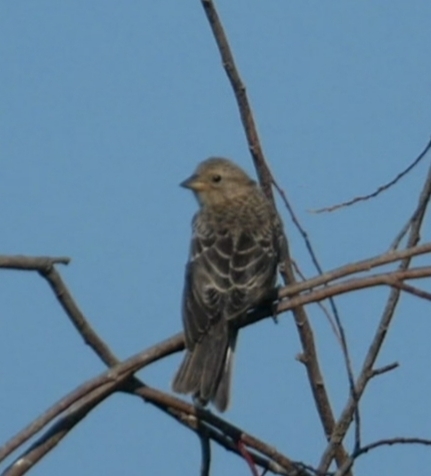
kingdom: Animalia
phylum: Chordata
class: Aves
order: Passeriformes
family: Icteridae
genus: Molothrus
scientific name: Molothrus ater
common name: Brown-headed cowbird
